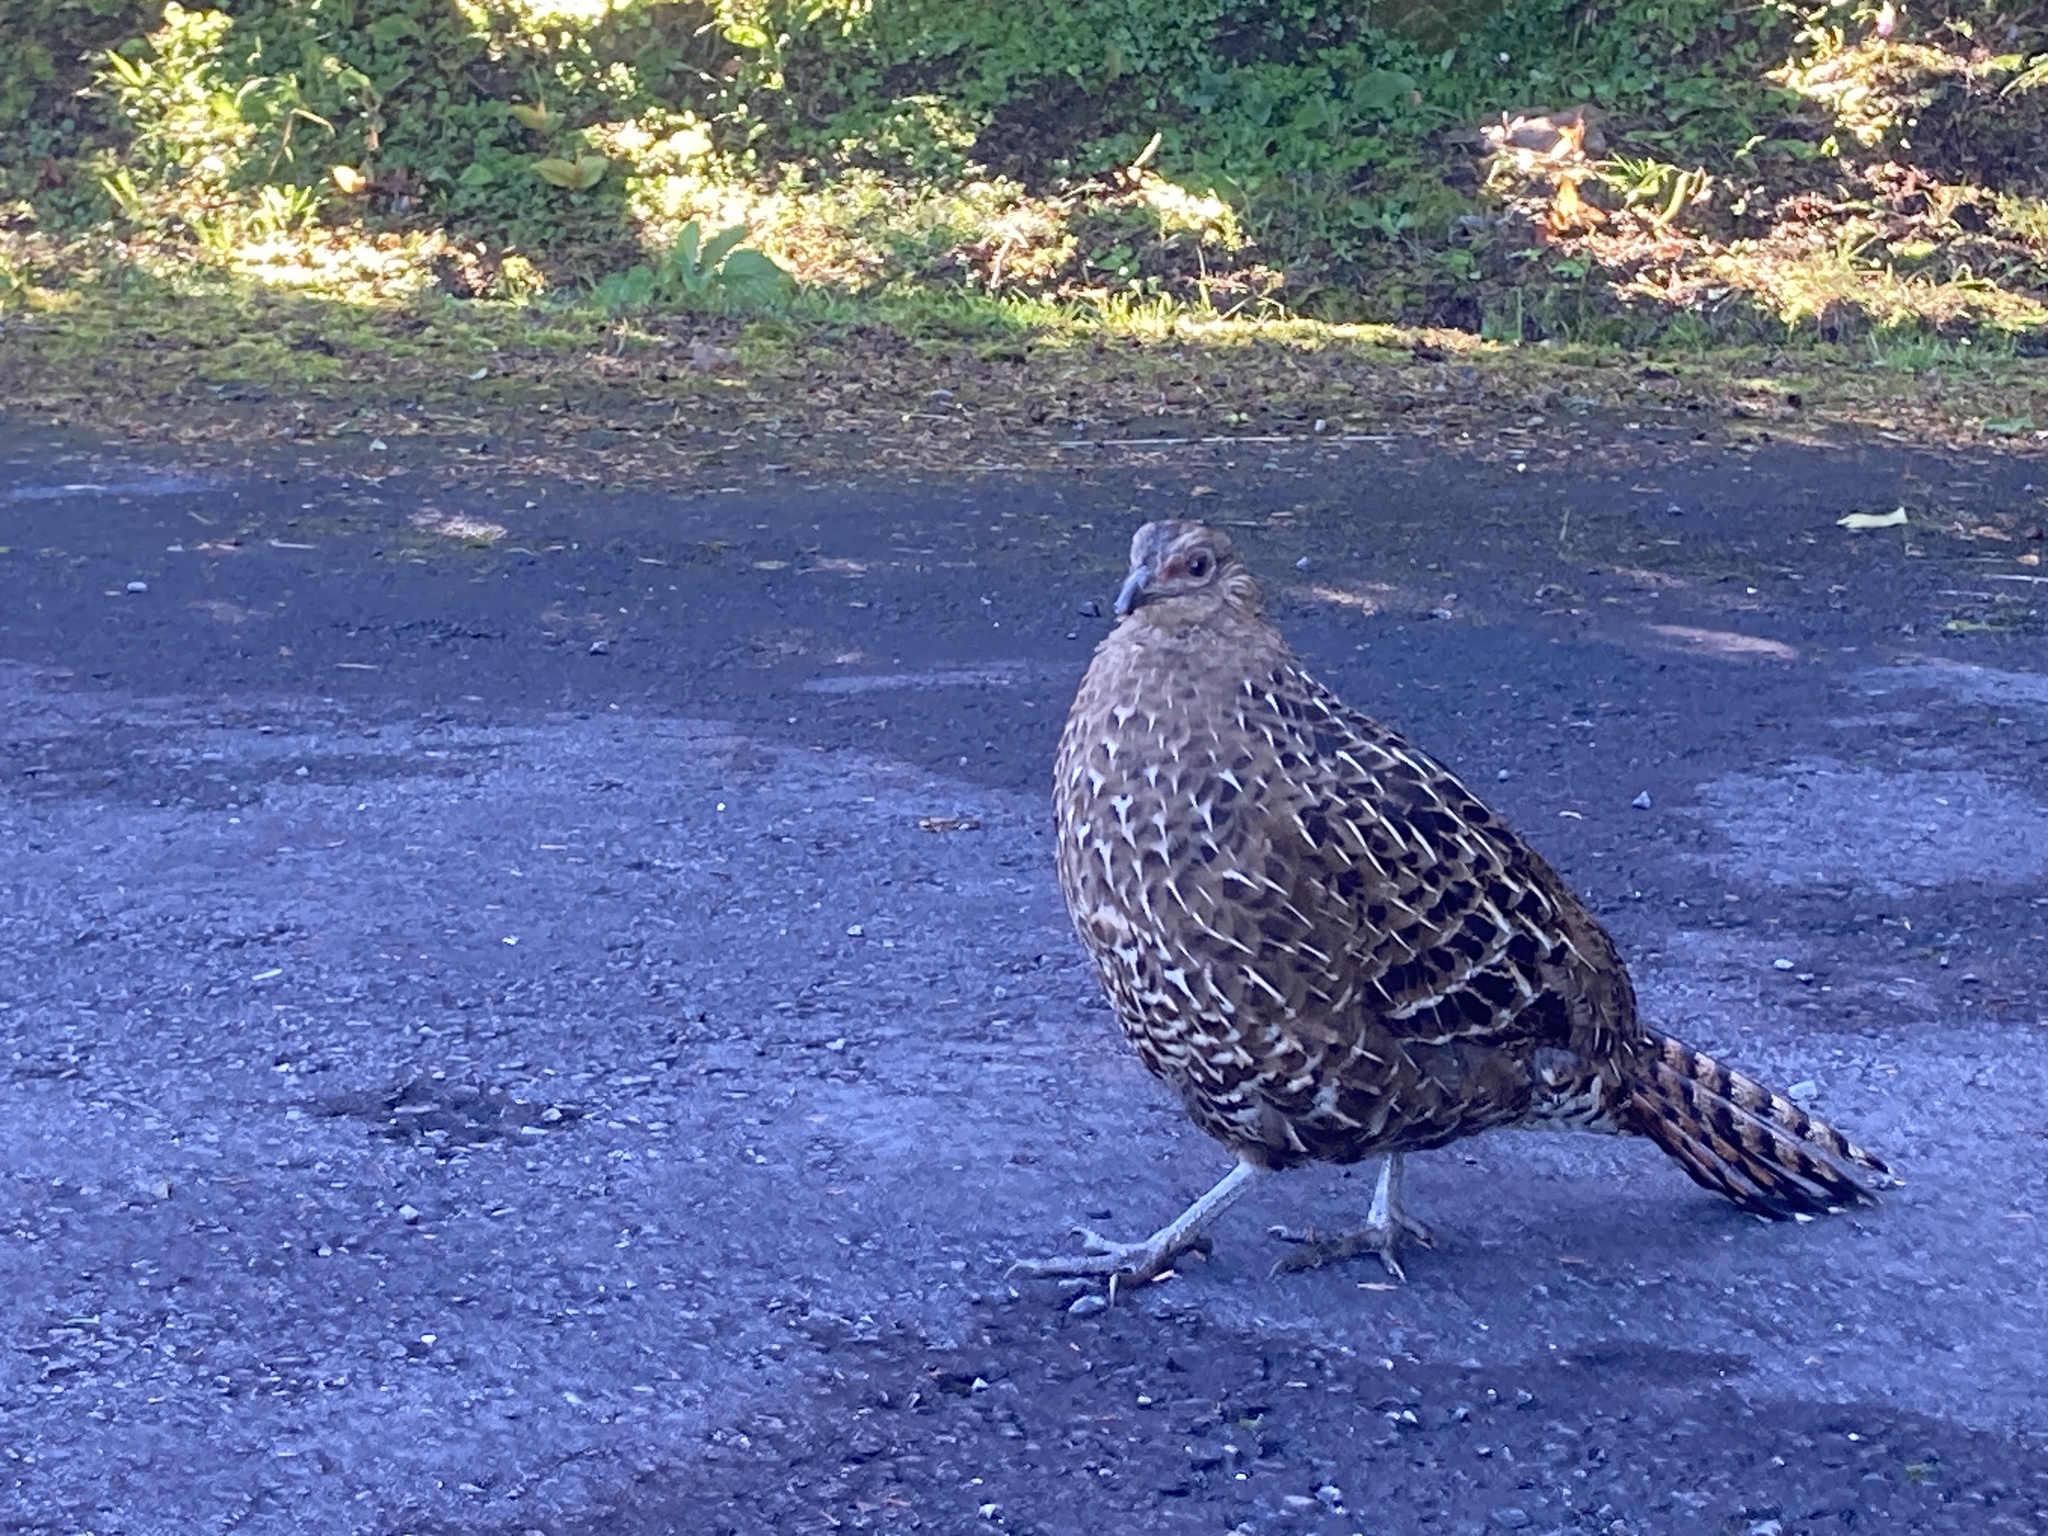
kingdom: Animalia
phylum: Chordata
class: Aves
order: Galliformes
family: Phasianidae
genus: Syrmaticus
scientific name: Syrmaticus mikado
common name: Mikado pheasant
